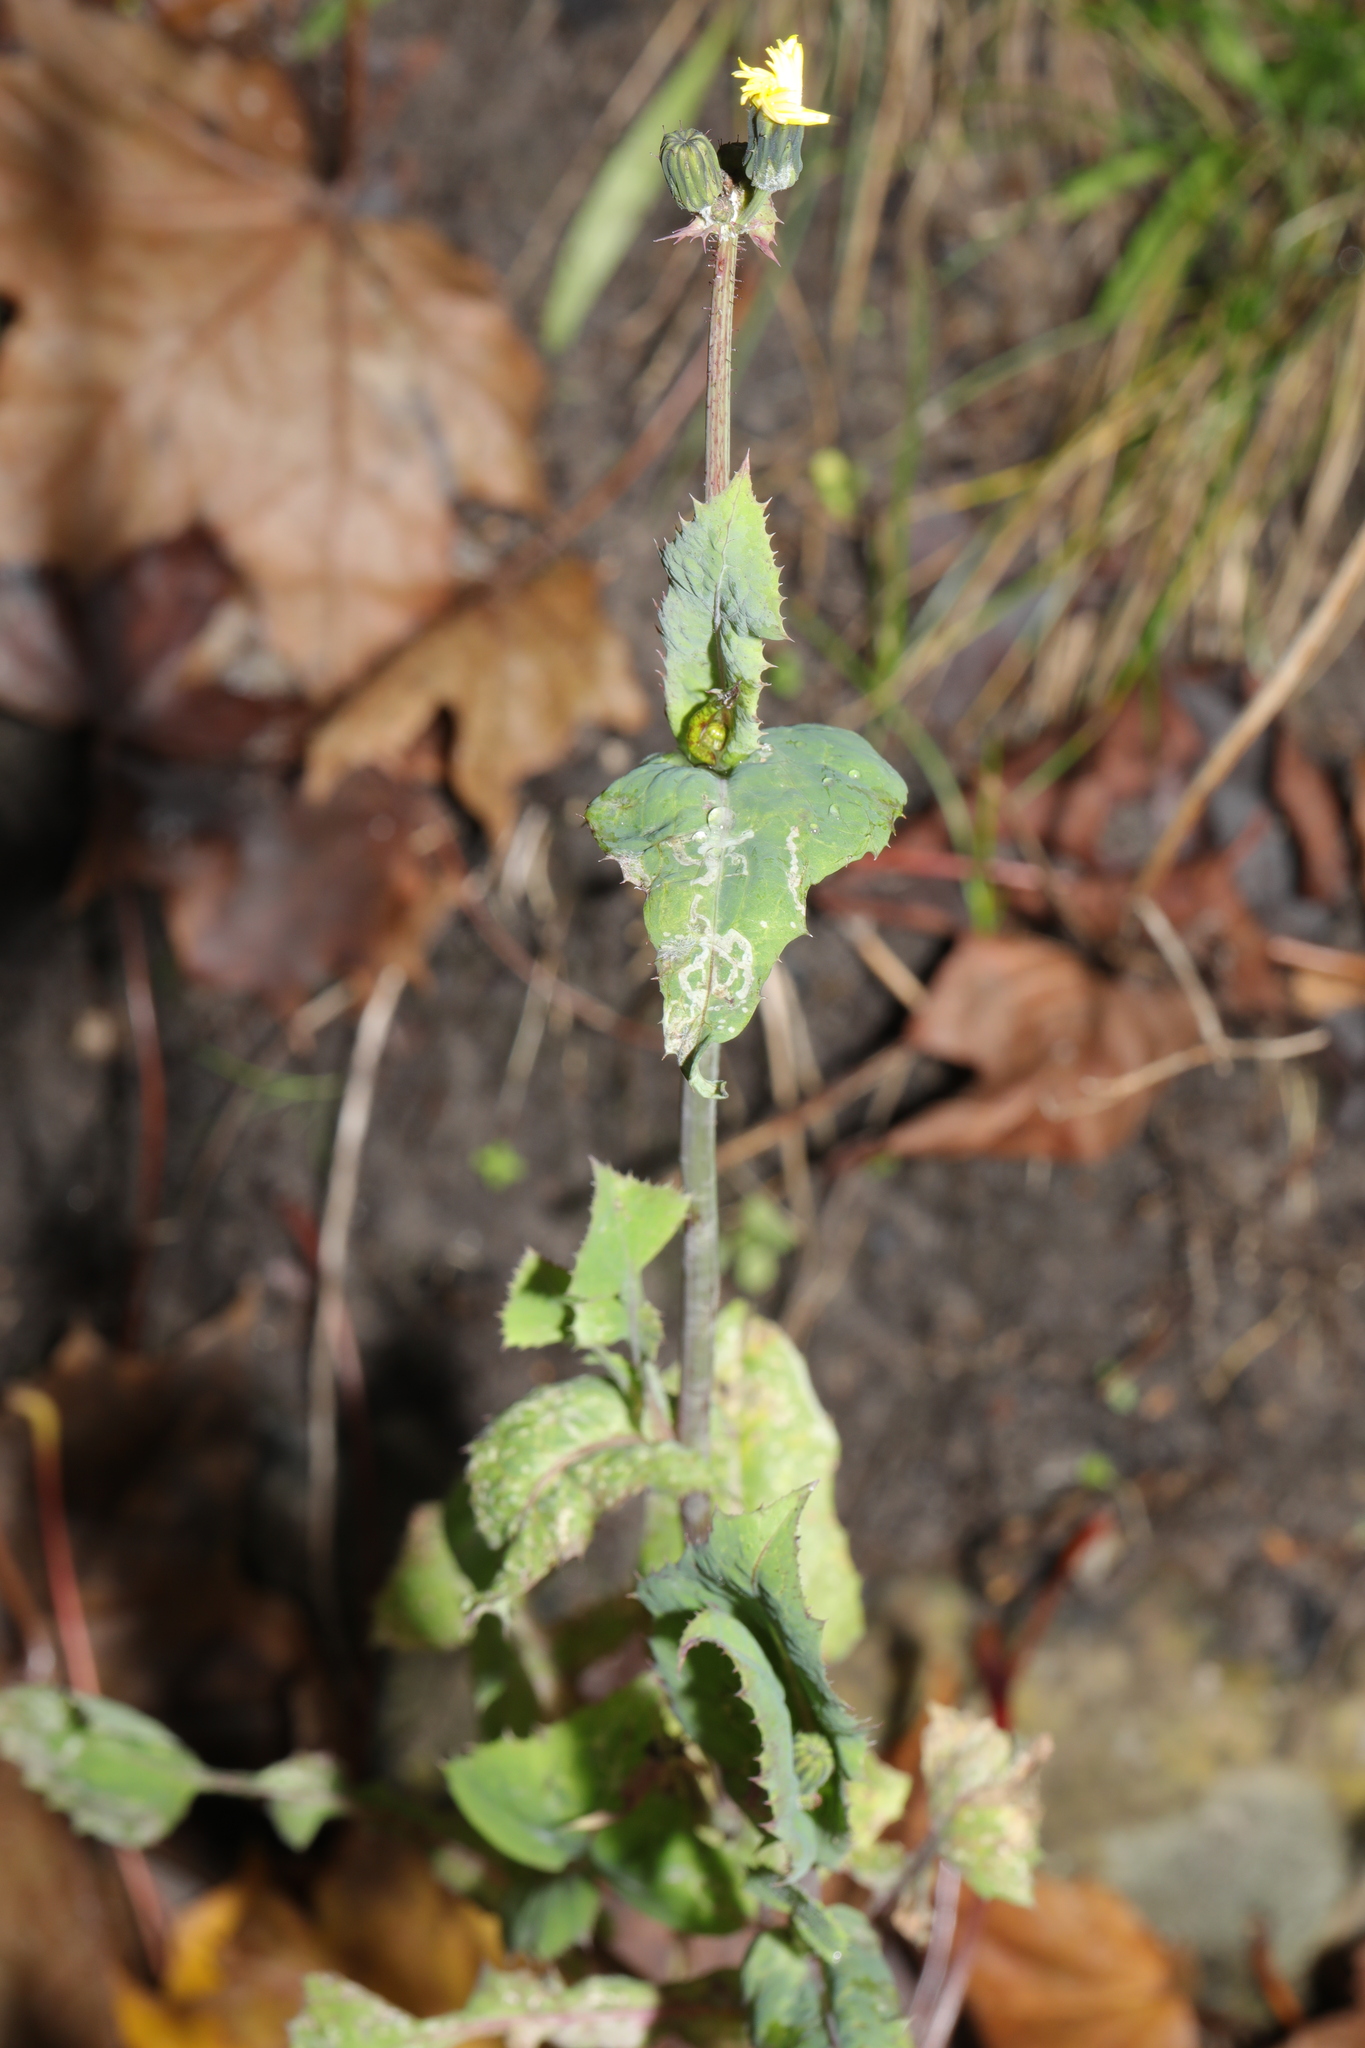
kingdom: Plantae
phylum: Tracheophyta
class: Magnoliopsida
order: Asterales
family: Asteraceae
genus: Sonchus
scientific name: Sonchus oleraceus
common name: Common sowthistle
